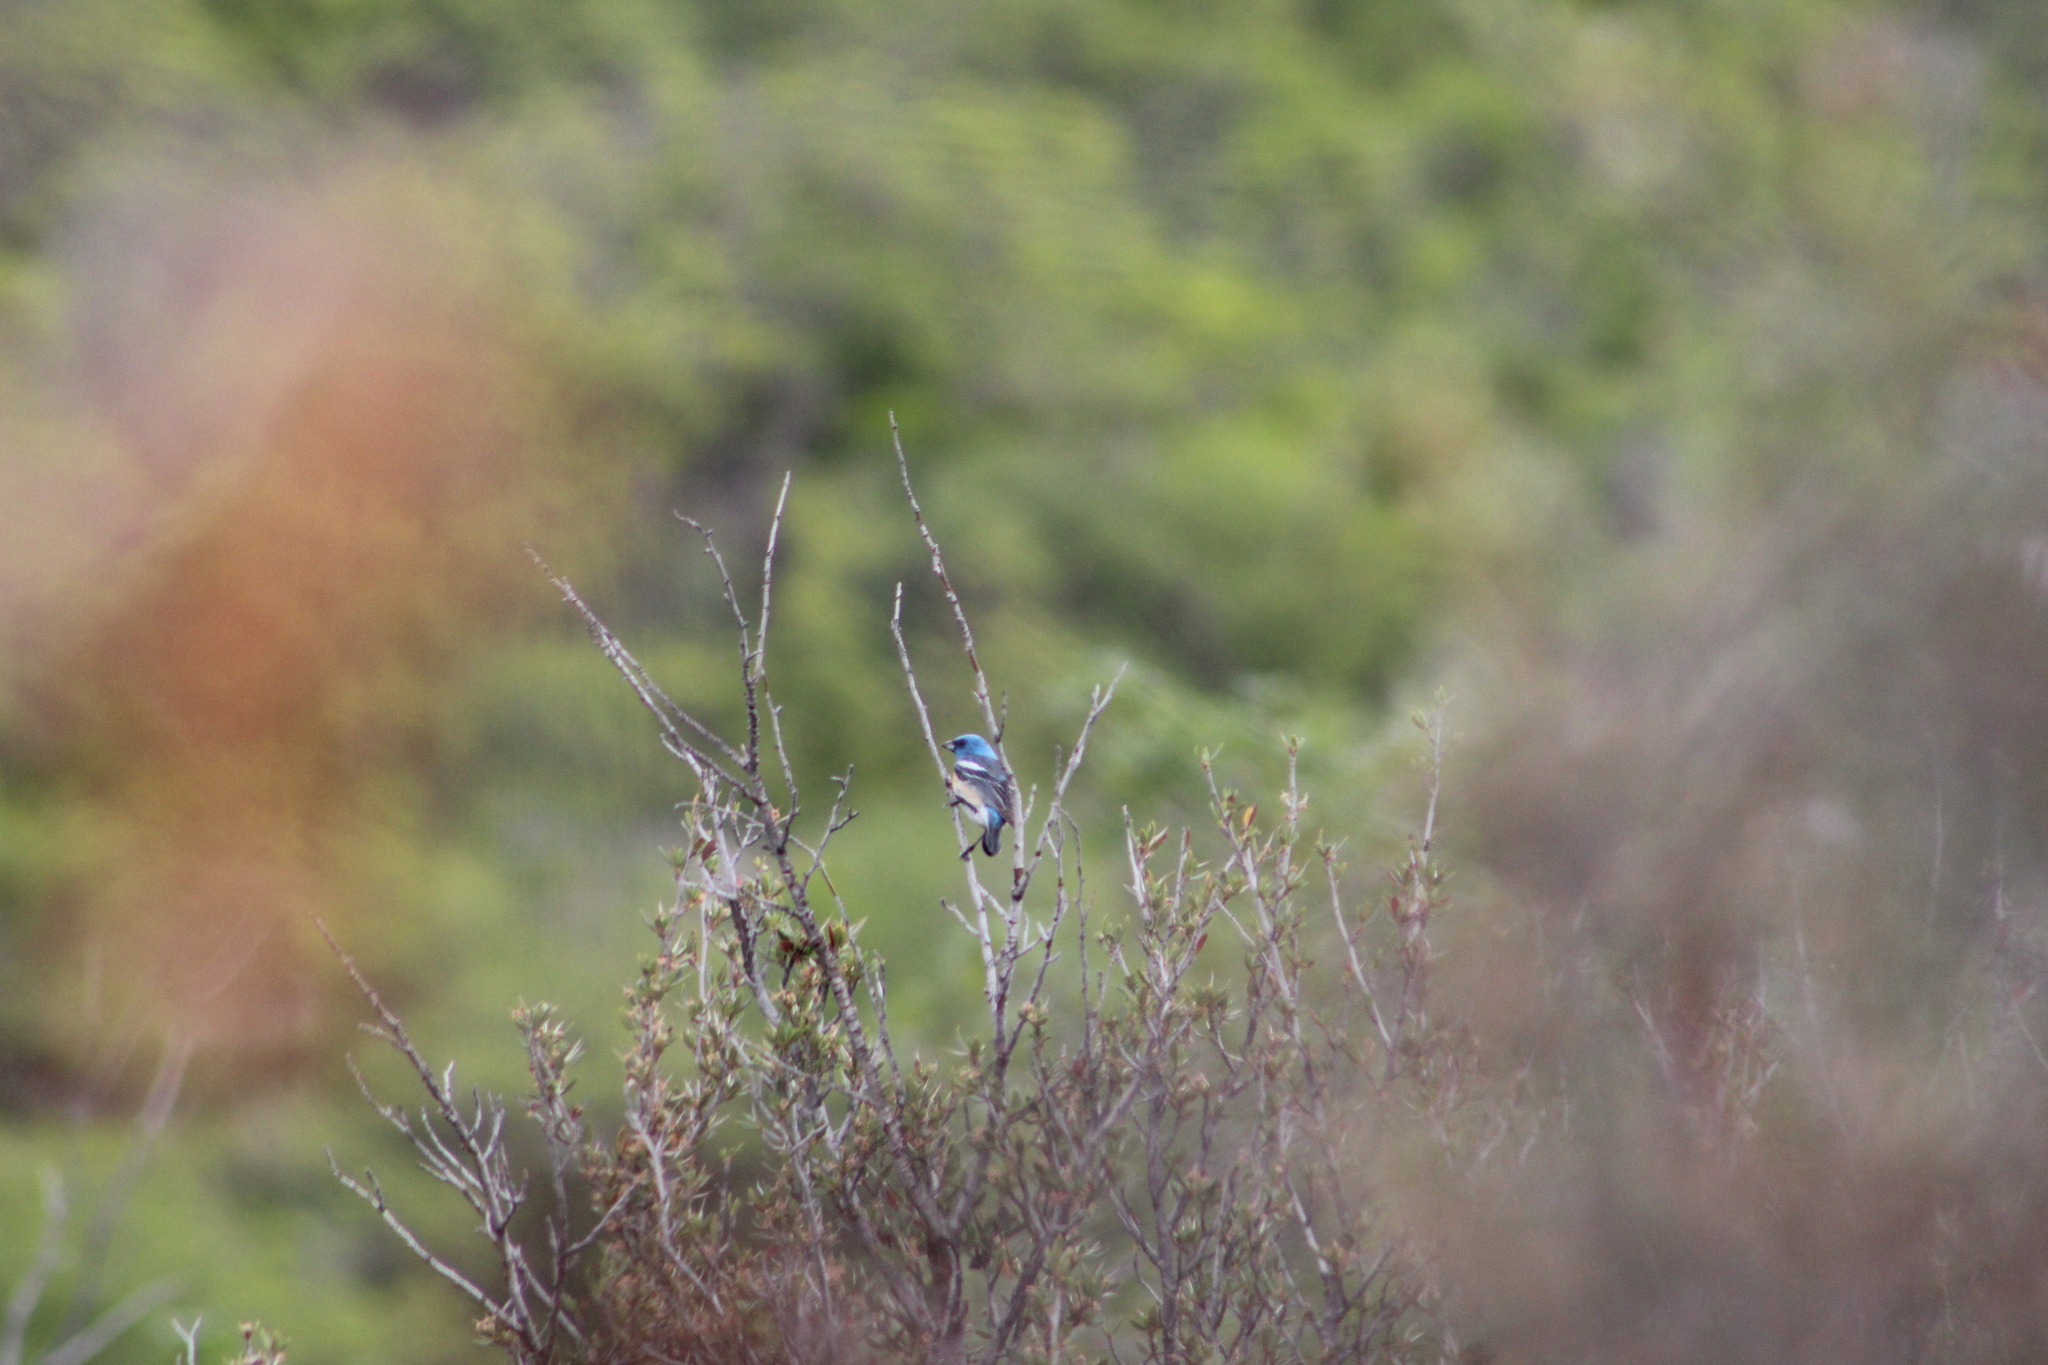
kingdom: Animalia
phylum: Chordata
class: Aves
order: Passeriformes
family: Cardinalidae
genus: Passerina
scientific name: Passerina amoena
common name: Lazuli bunting
